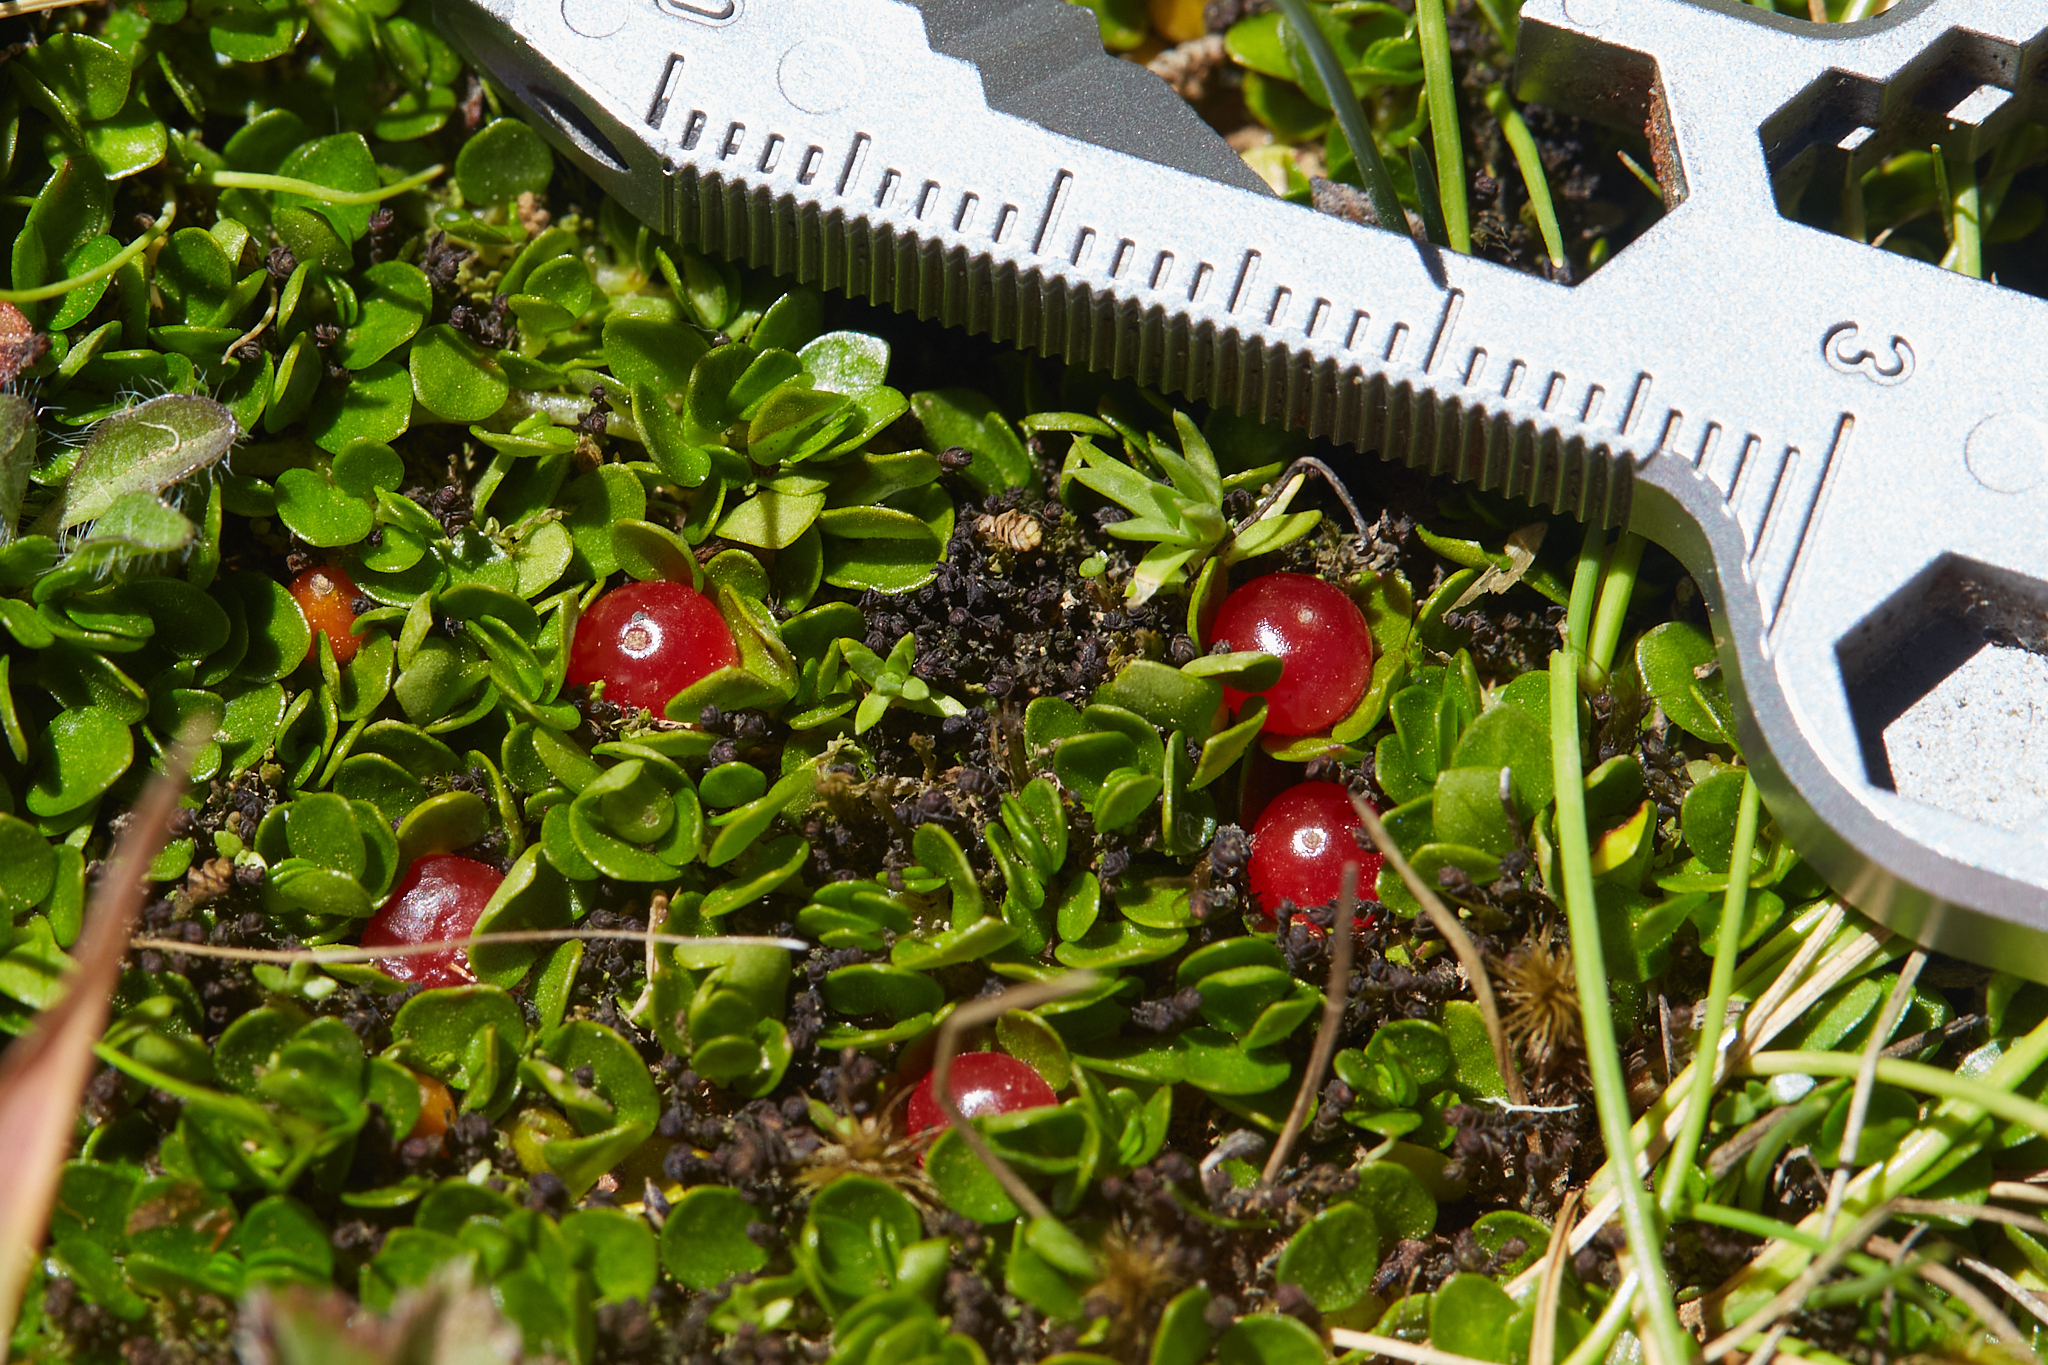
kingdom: Plantae
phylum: Tracheophyta
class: Magnoliopsida
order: Gentianales
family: Rubiaceae
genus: Nertera
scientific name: Nertera granadensis
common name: Beadplant
